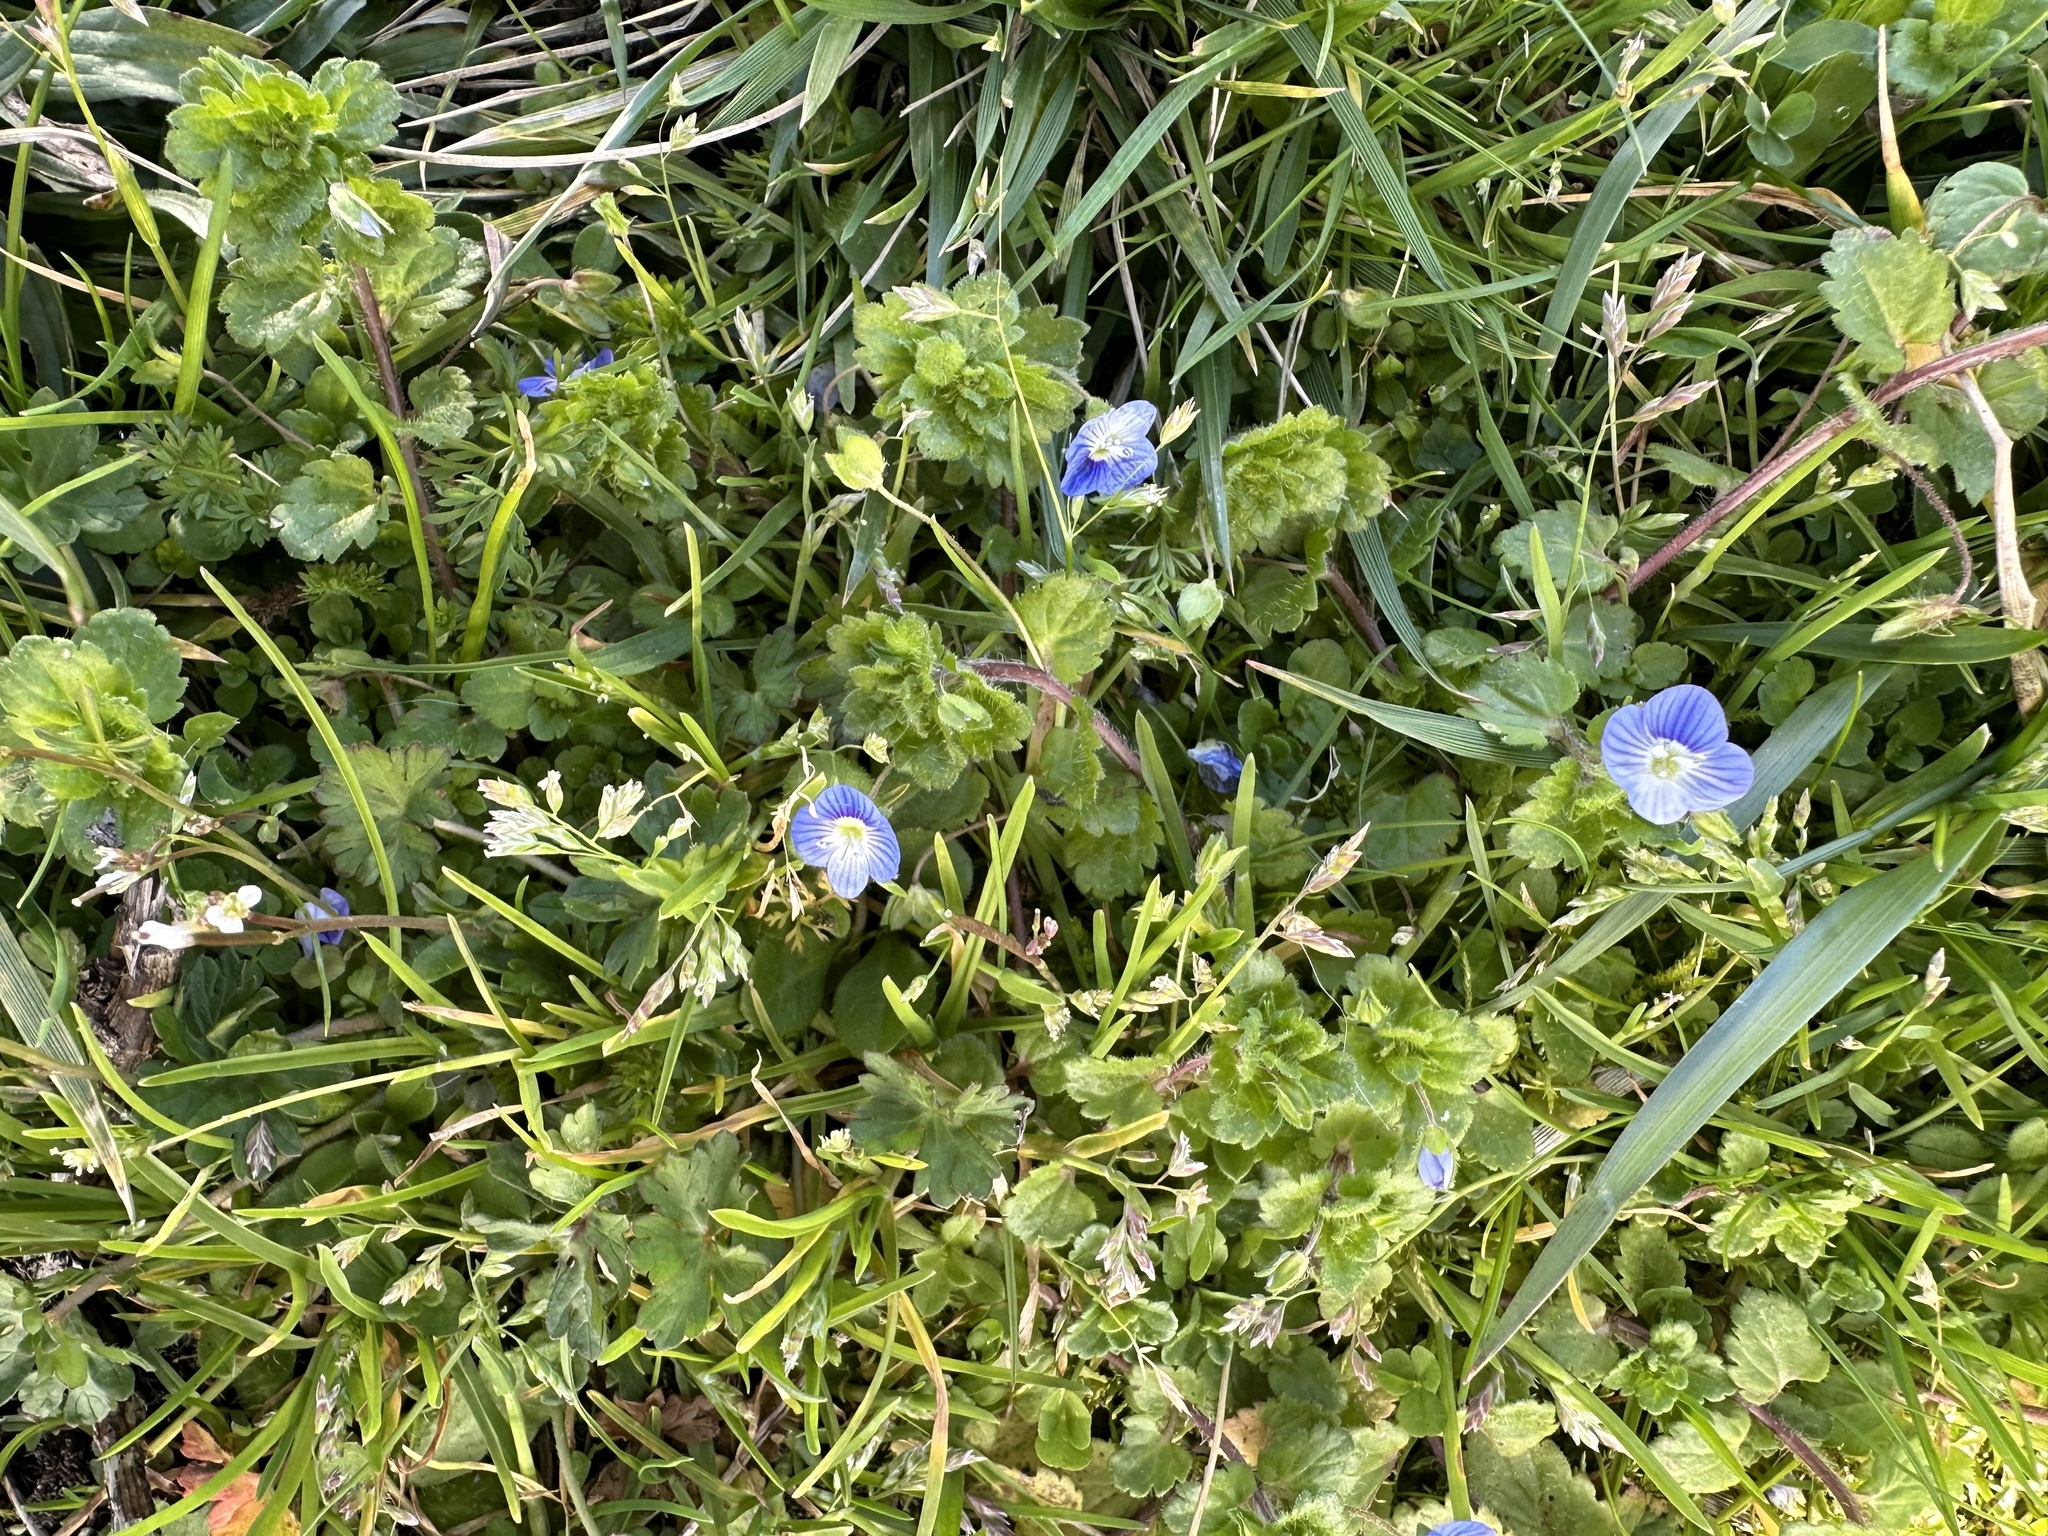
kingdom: Plantae
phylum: Tracheophyta
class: Magnoliopsida
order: Lamiales
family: Plantaginaceae
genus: Veronica
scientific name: Veronica persica
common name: Common field-speedwell
